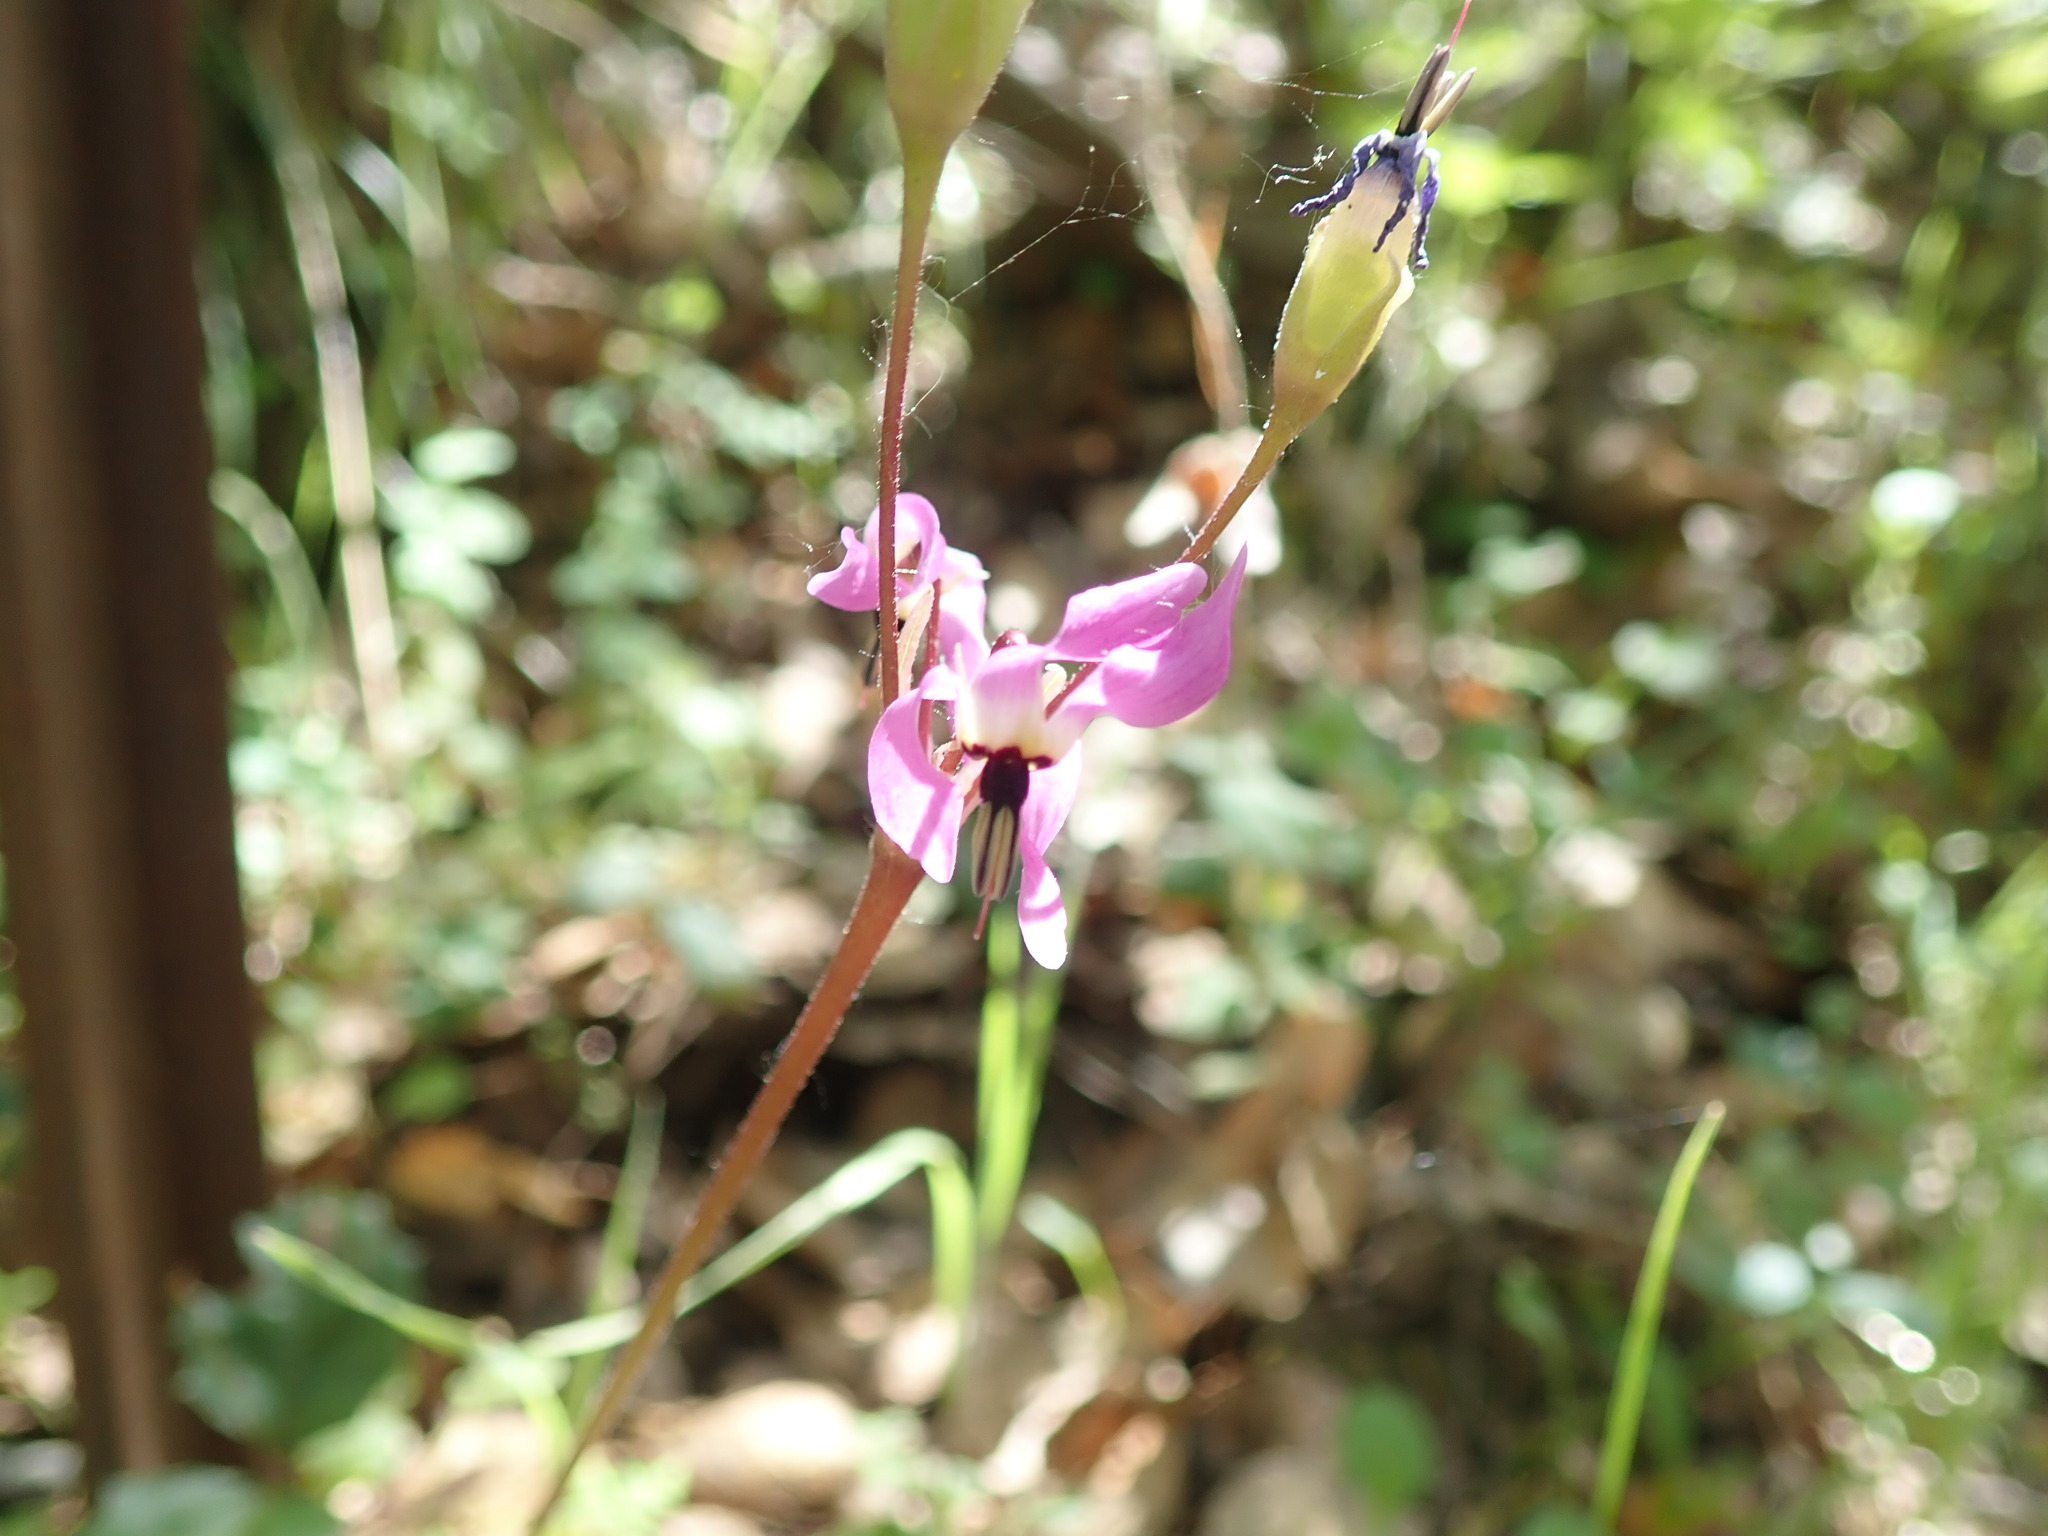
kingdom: Plantae
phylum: Tracheophyta
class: Magnoliopsida
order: Ericales
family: Primulaceae
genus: Dodecatheon
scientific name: Dodecatheon hendersonii
